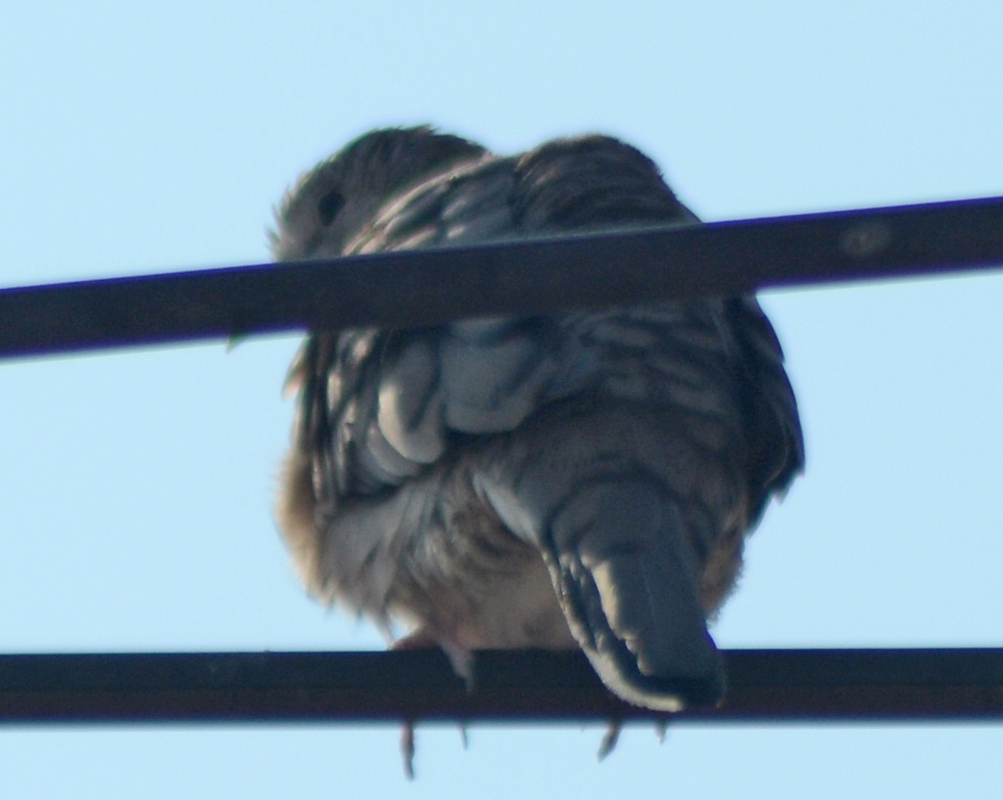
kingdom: Animalia
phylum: Chordata
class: Aves
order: Columbiformes
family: Columbidae
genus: Columbina
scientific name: Columbina inca
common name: Inca dove
